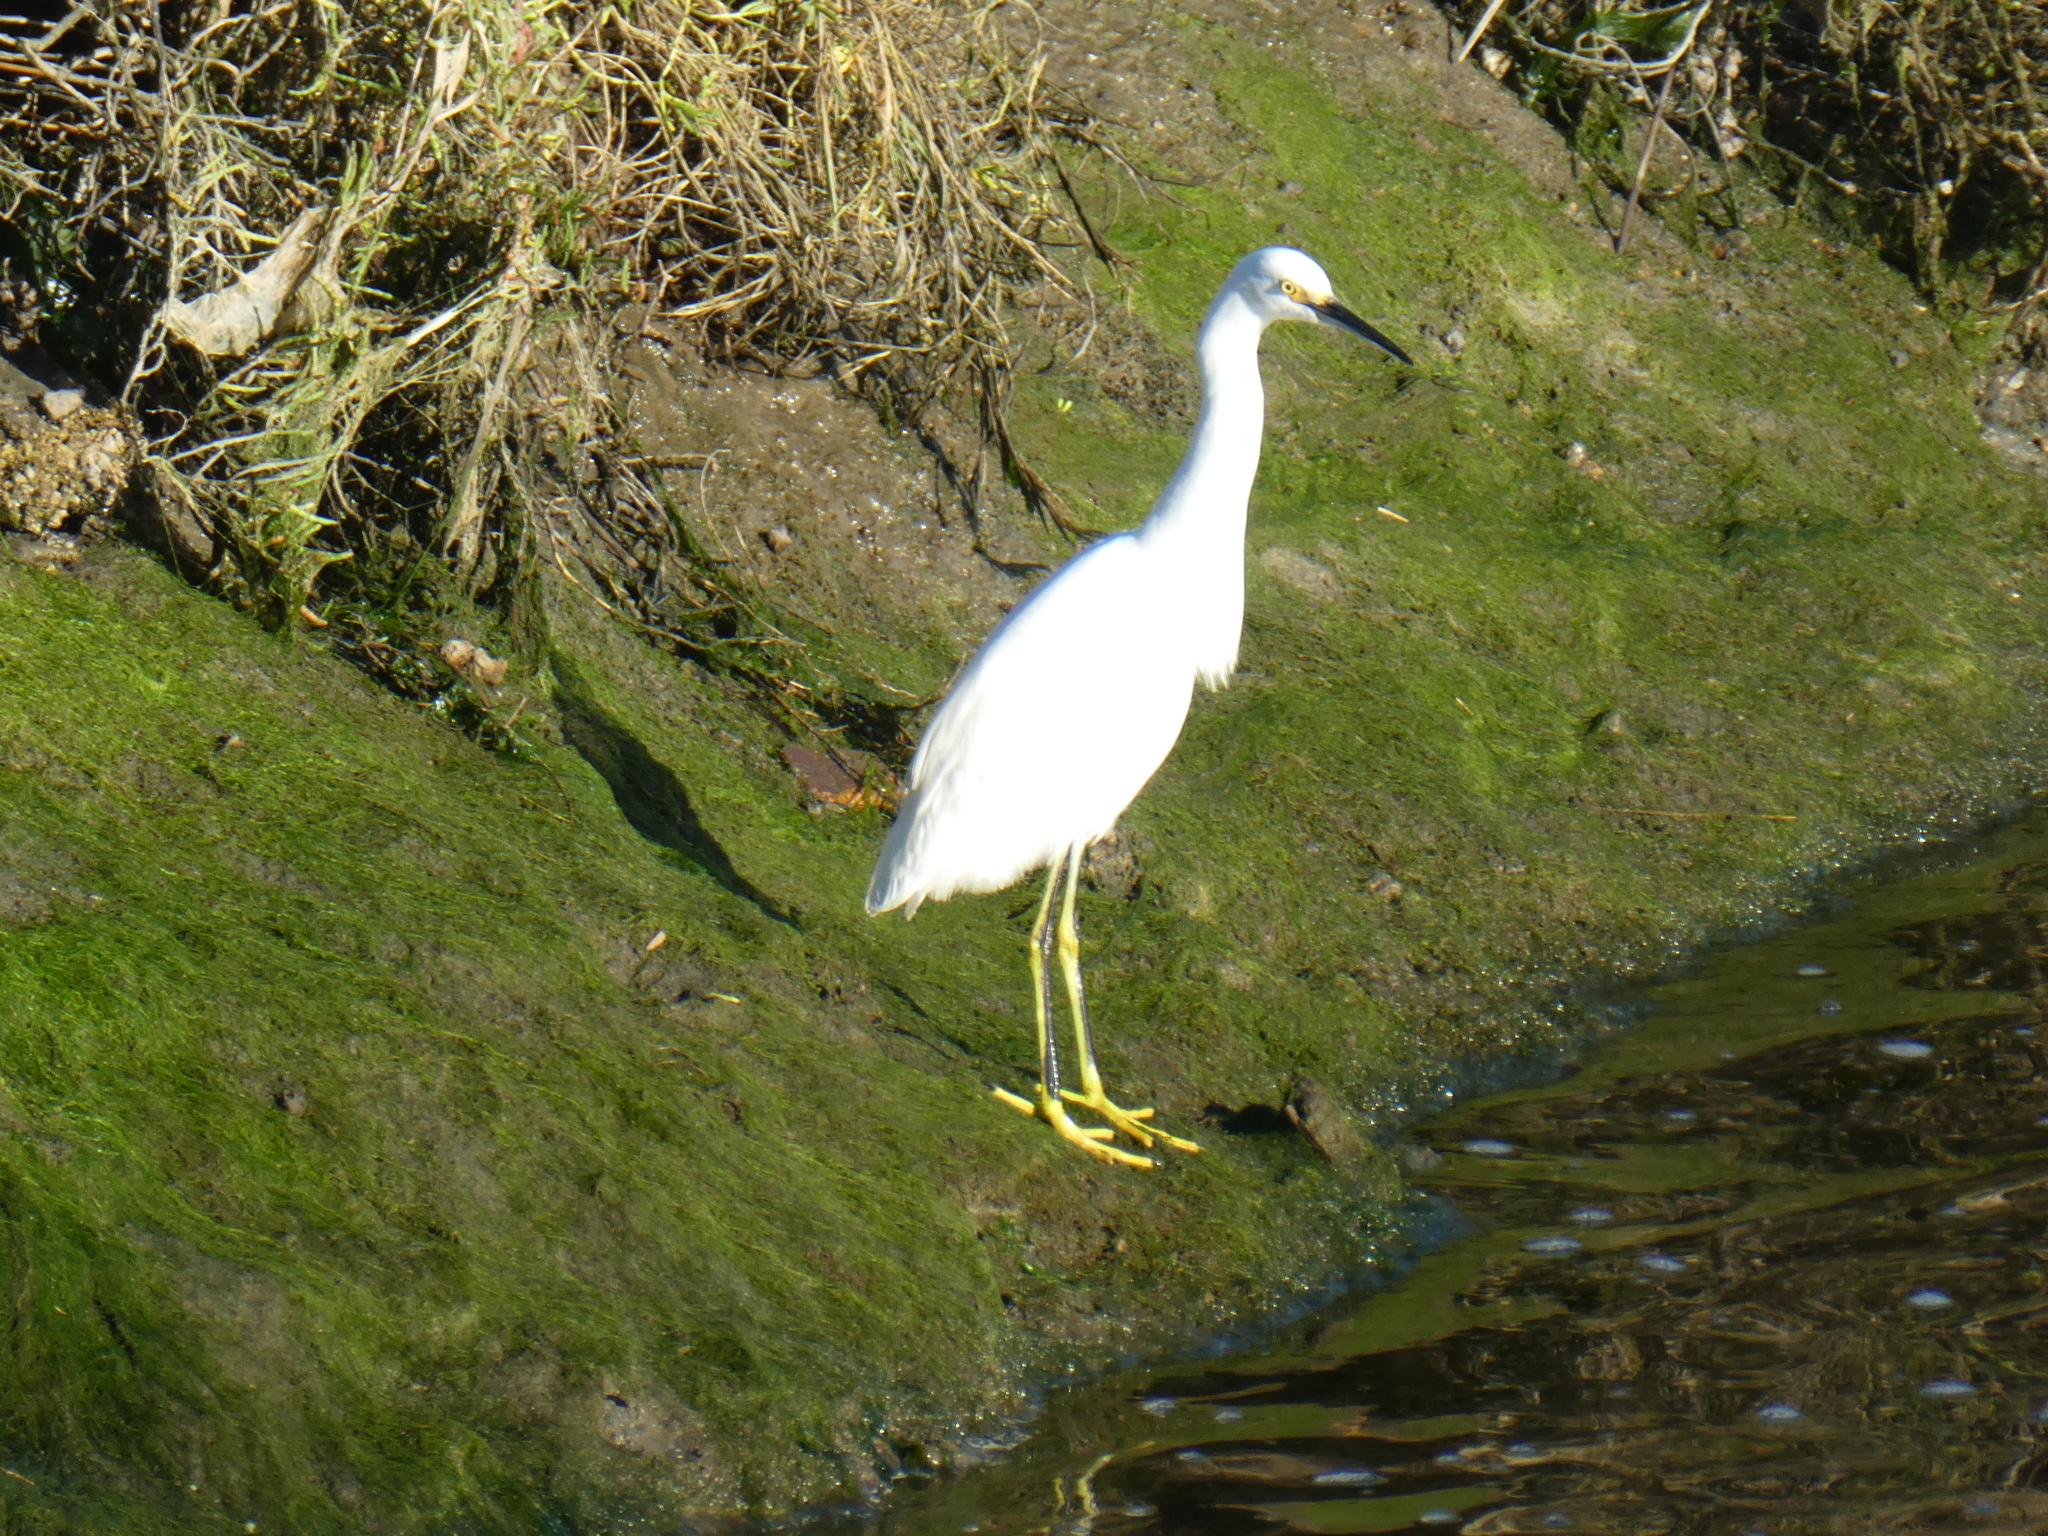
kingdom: Animalia
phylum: Chordata
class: Aves
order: Pelecaniformes
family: Ardeidae
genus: Egretta
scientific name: Egretta thula
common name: Snowy egret
